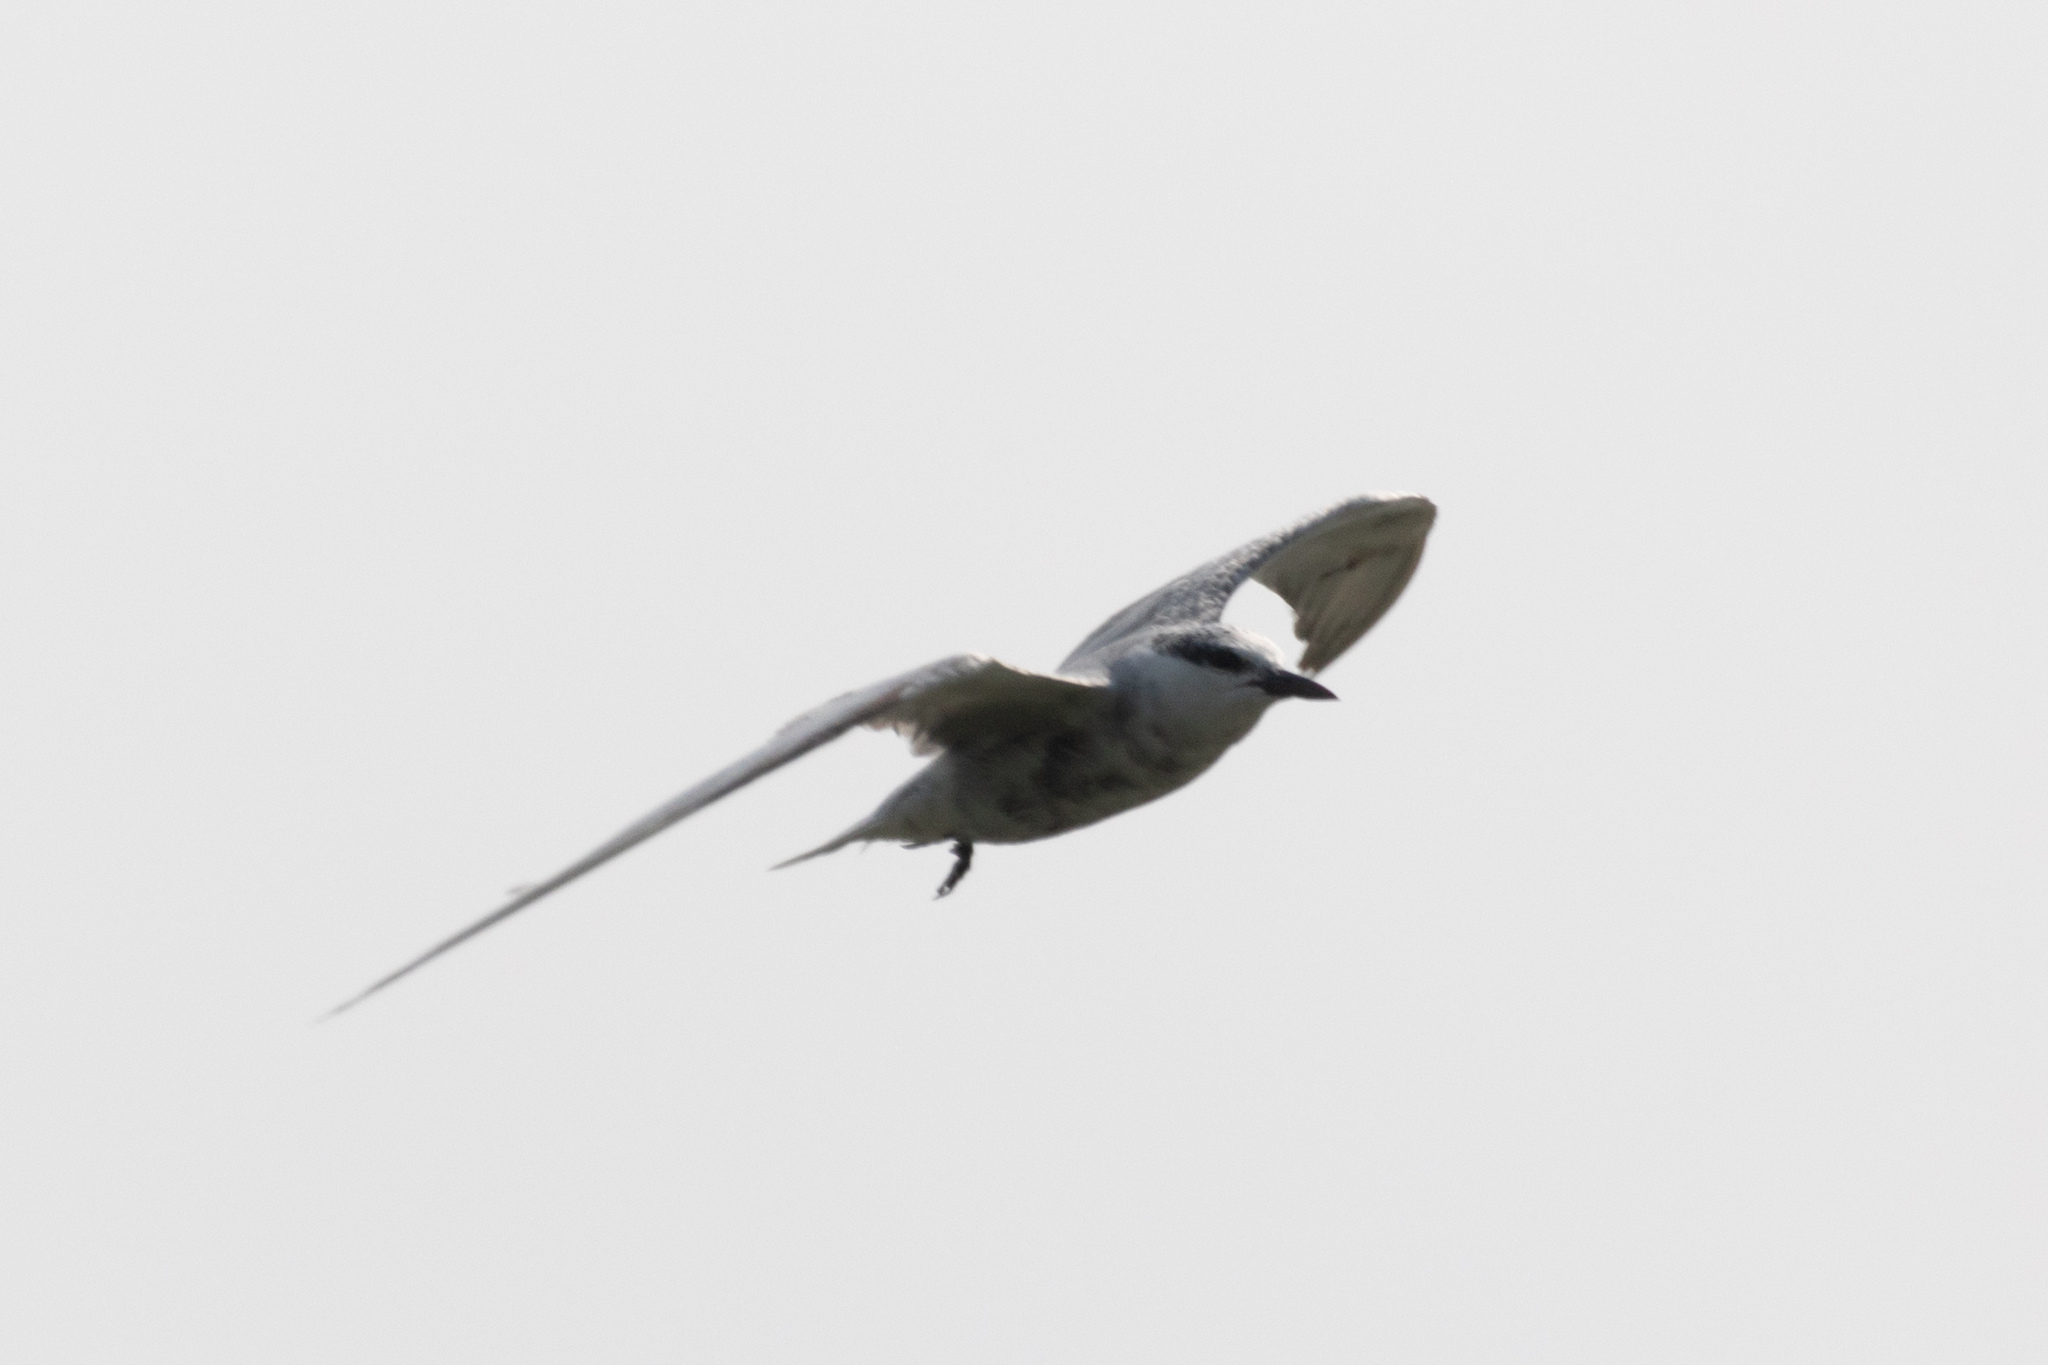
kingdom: Animalia
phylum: Chordata
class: Aves
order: Charadriiformes
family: Laridae
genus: Chlidonias
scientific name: Chlidonias hybrida
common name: Whiskered tern
